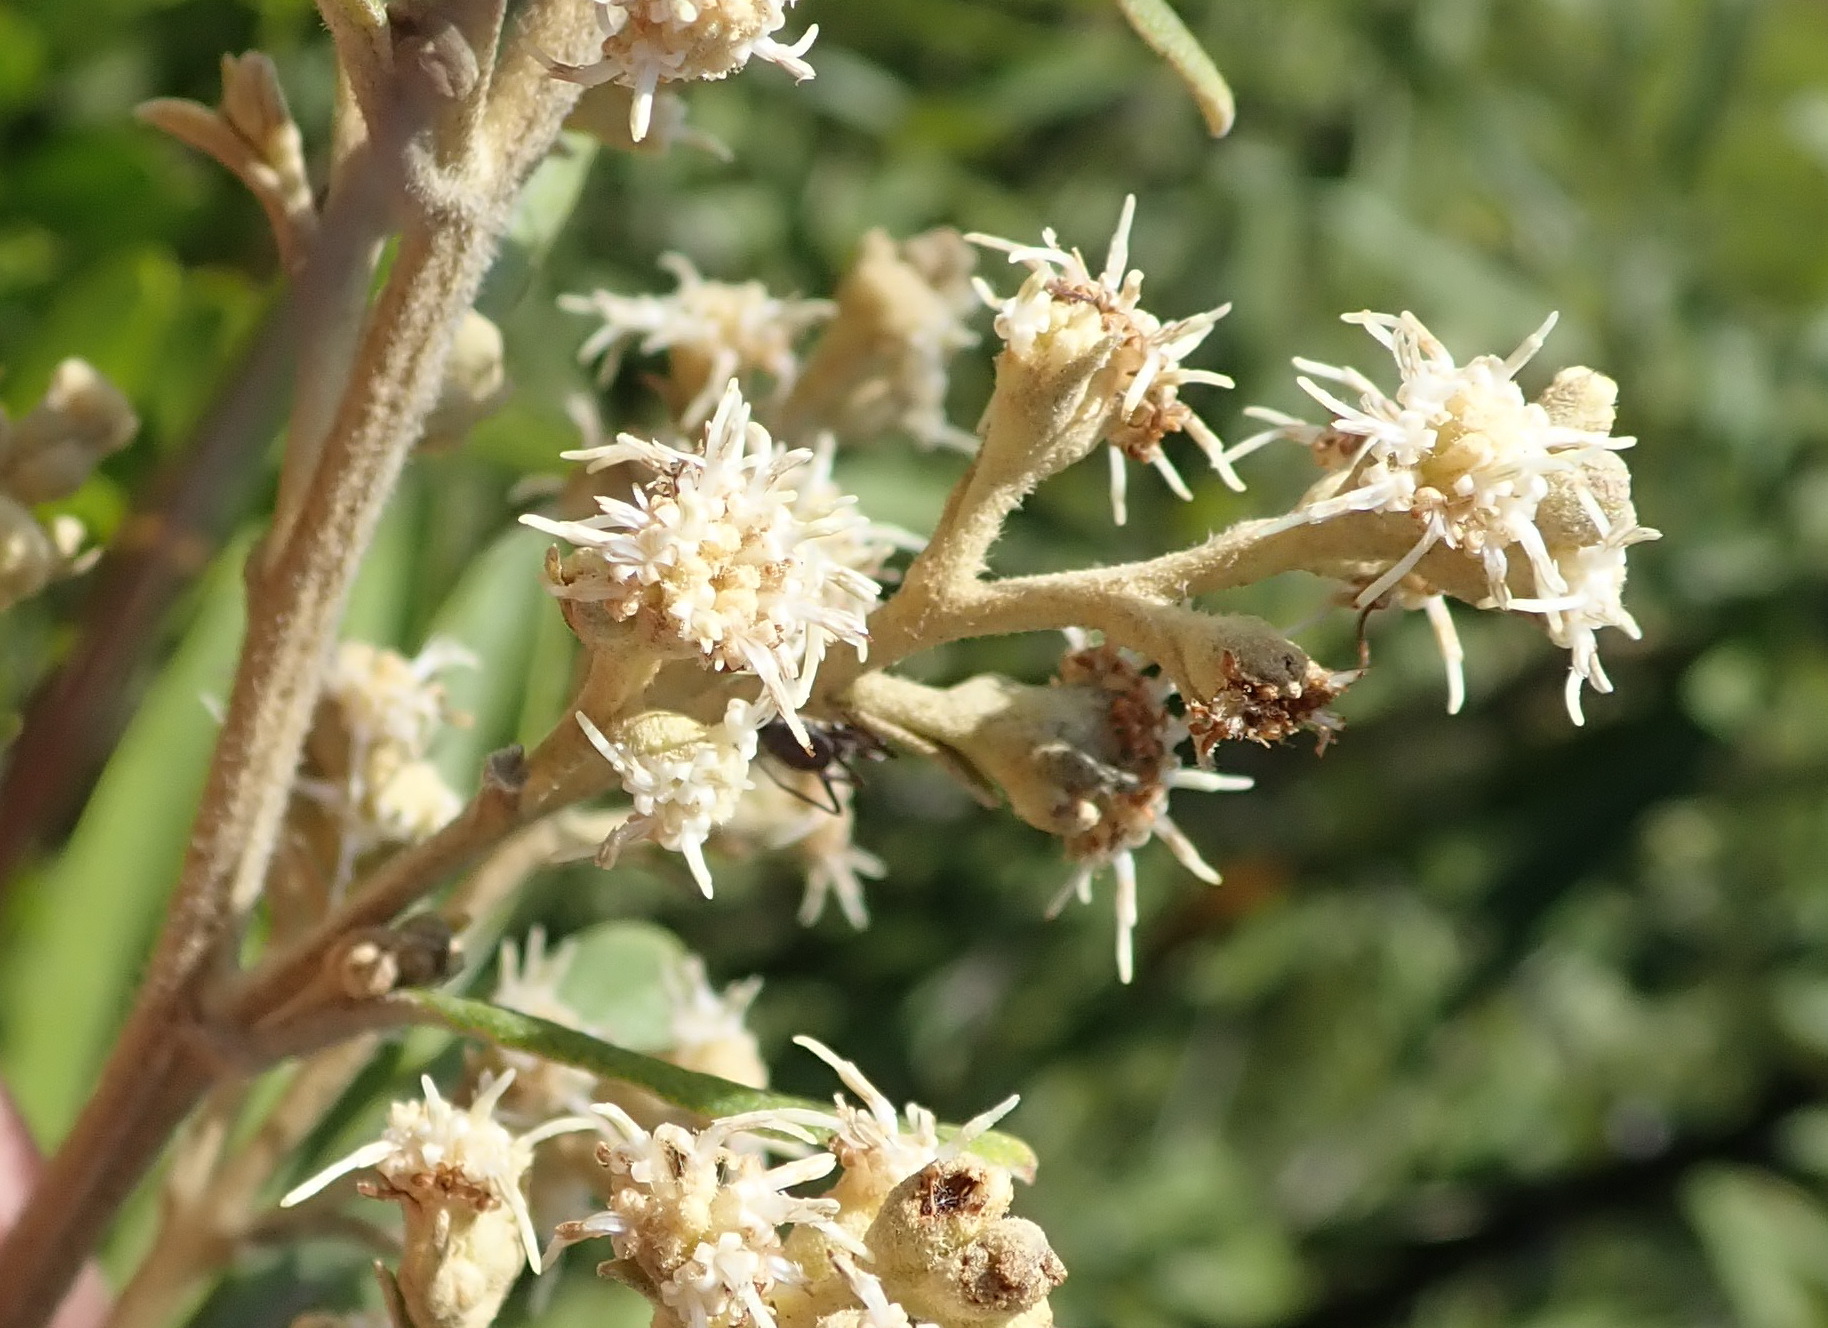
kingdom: Plantae
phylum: Tracheophyta
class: Magnoliopsida
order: Asterales
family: Asteraceae
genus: Tarchonanthus
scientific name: Tarchonanthus littoralis
